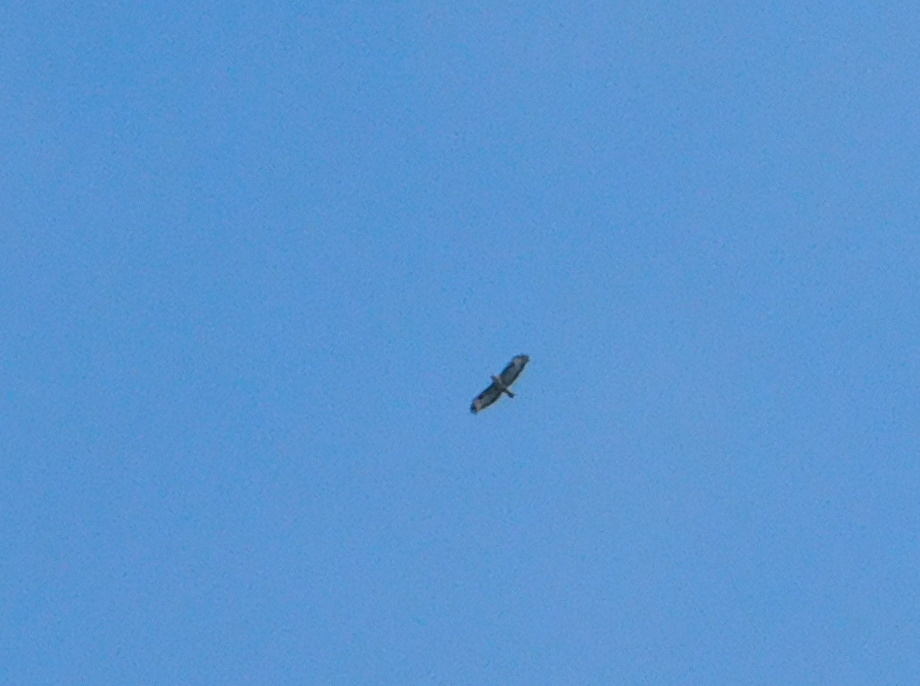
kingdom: Animalia
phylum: Chordata
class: Aves
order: Accipitriformes
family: Accipitridae
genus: Buteo
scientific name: Buteo buteo
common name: Common buzzard
